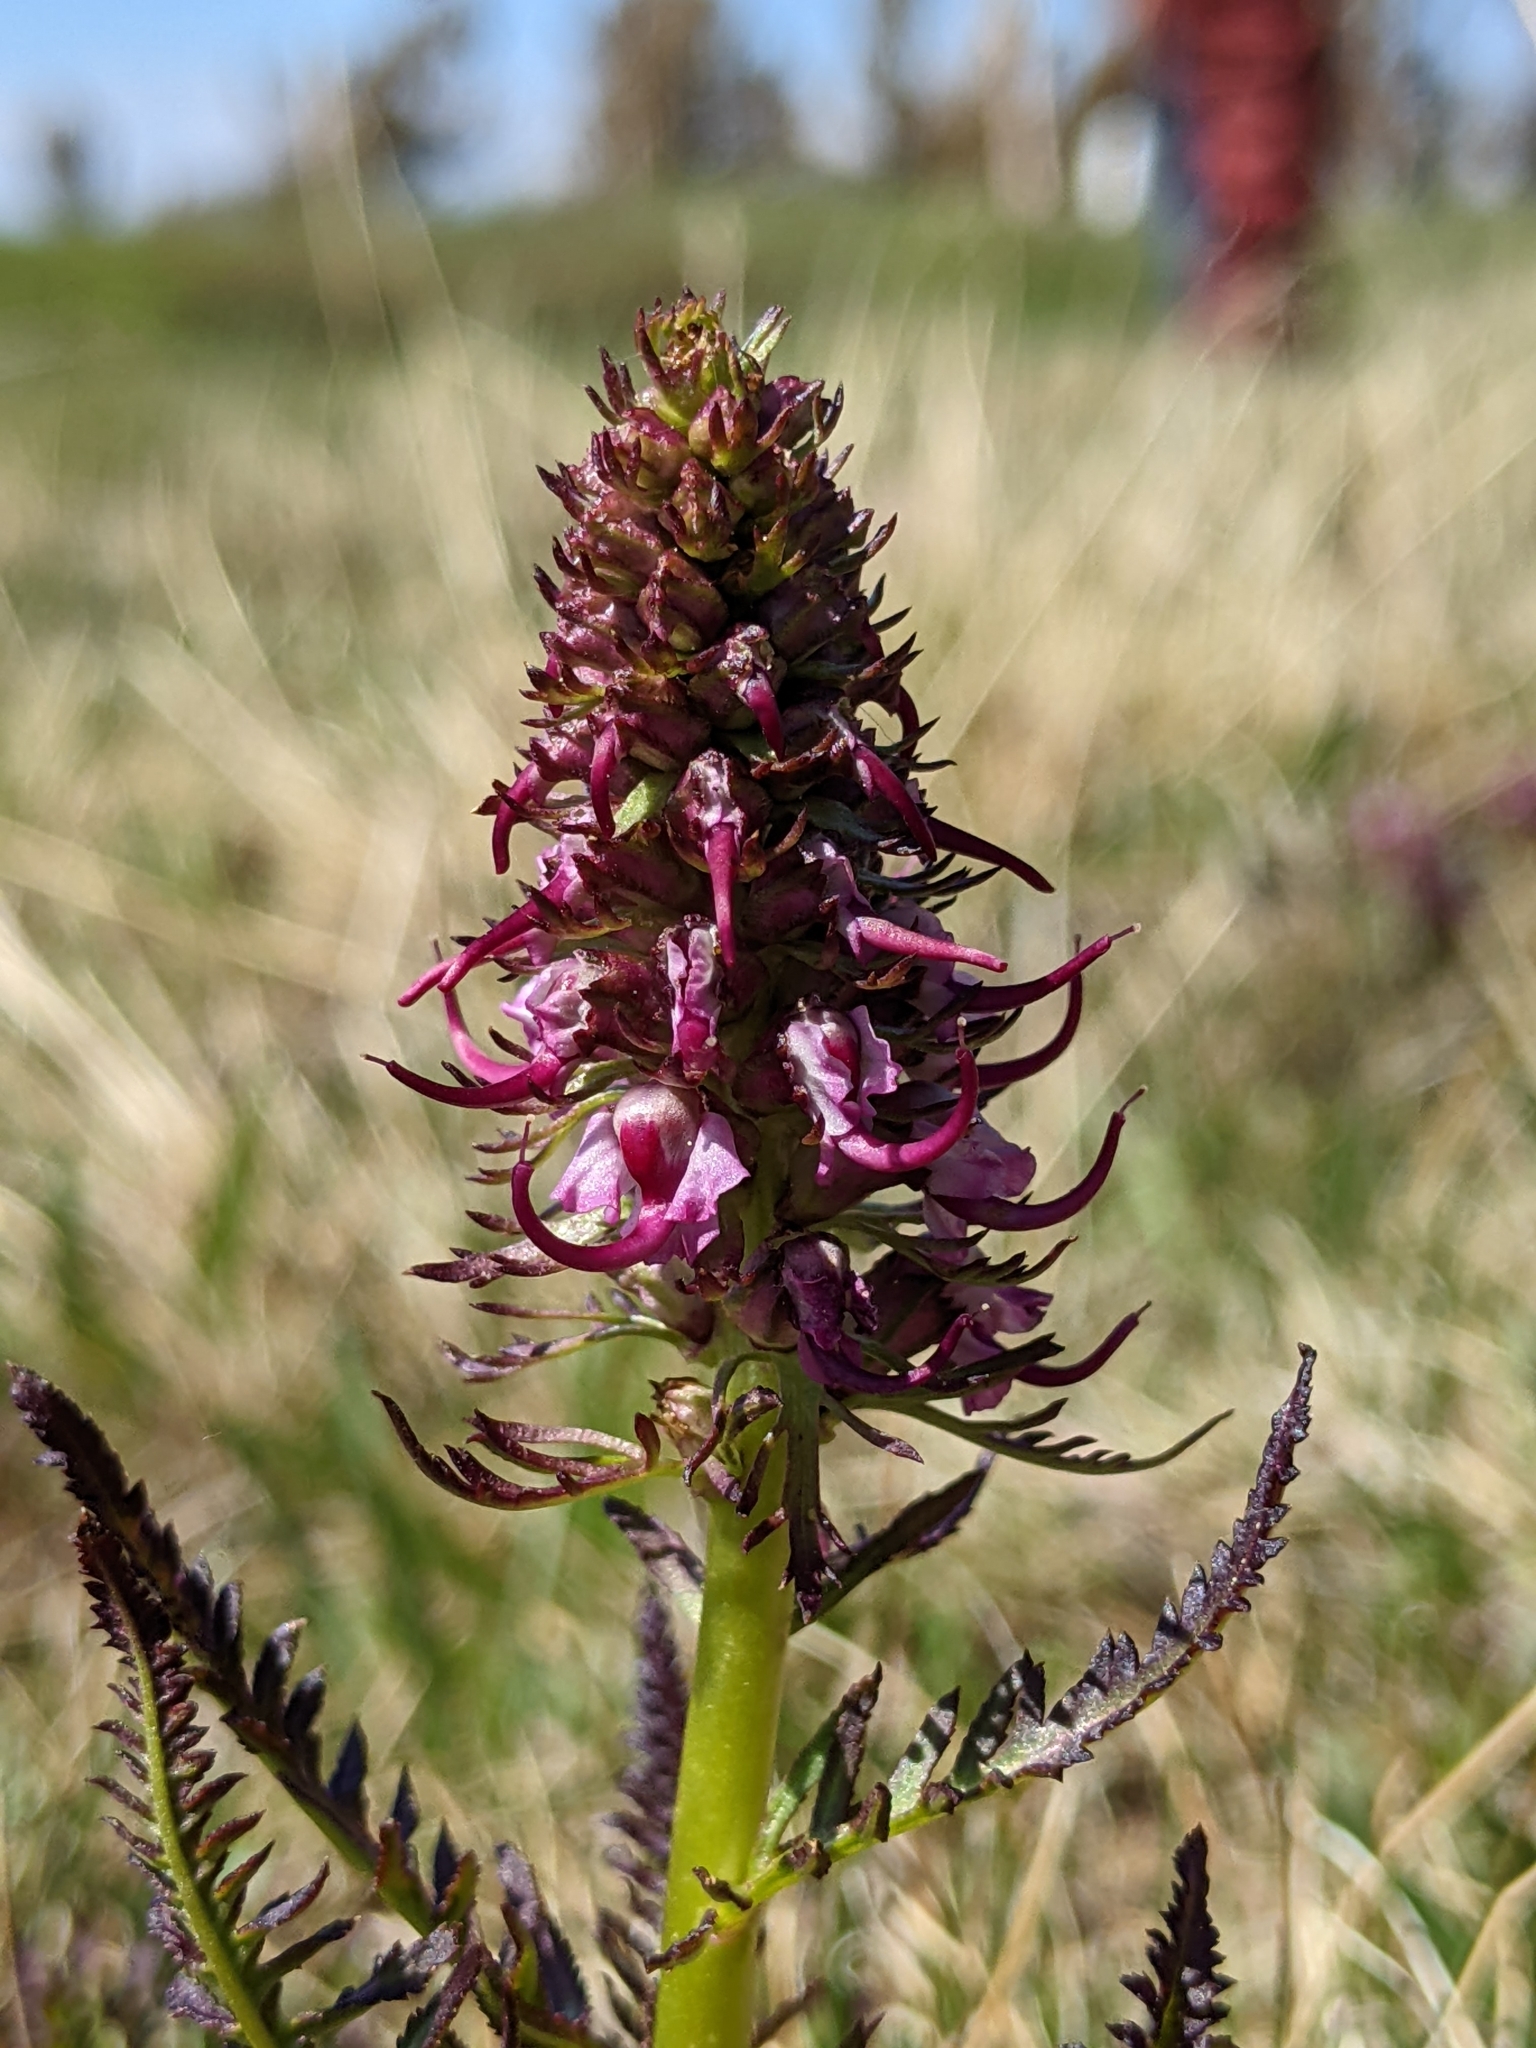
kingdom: Plantae
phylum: Tracheophyta
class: Magnoliopsida
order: Lamiales
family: Orobanchaceae
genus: Pedicularis
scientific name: Pedicularis groenlandica
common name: Elephant's-head
